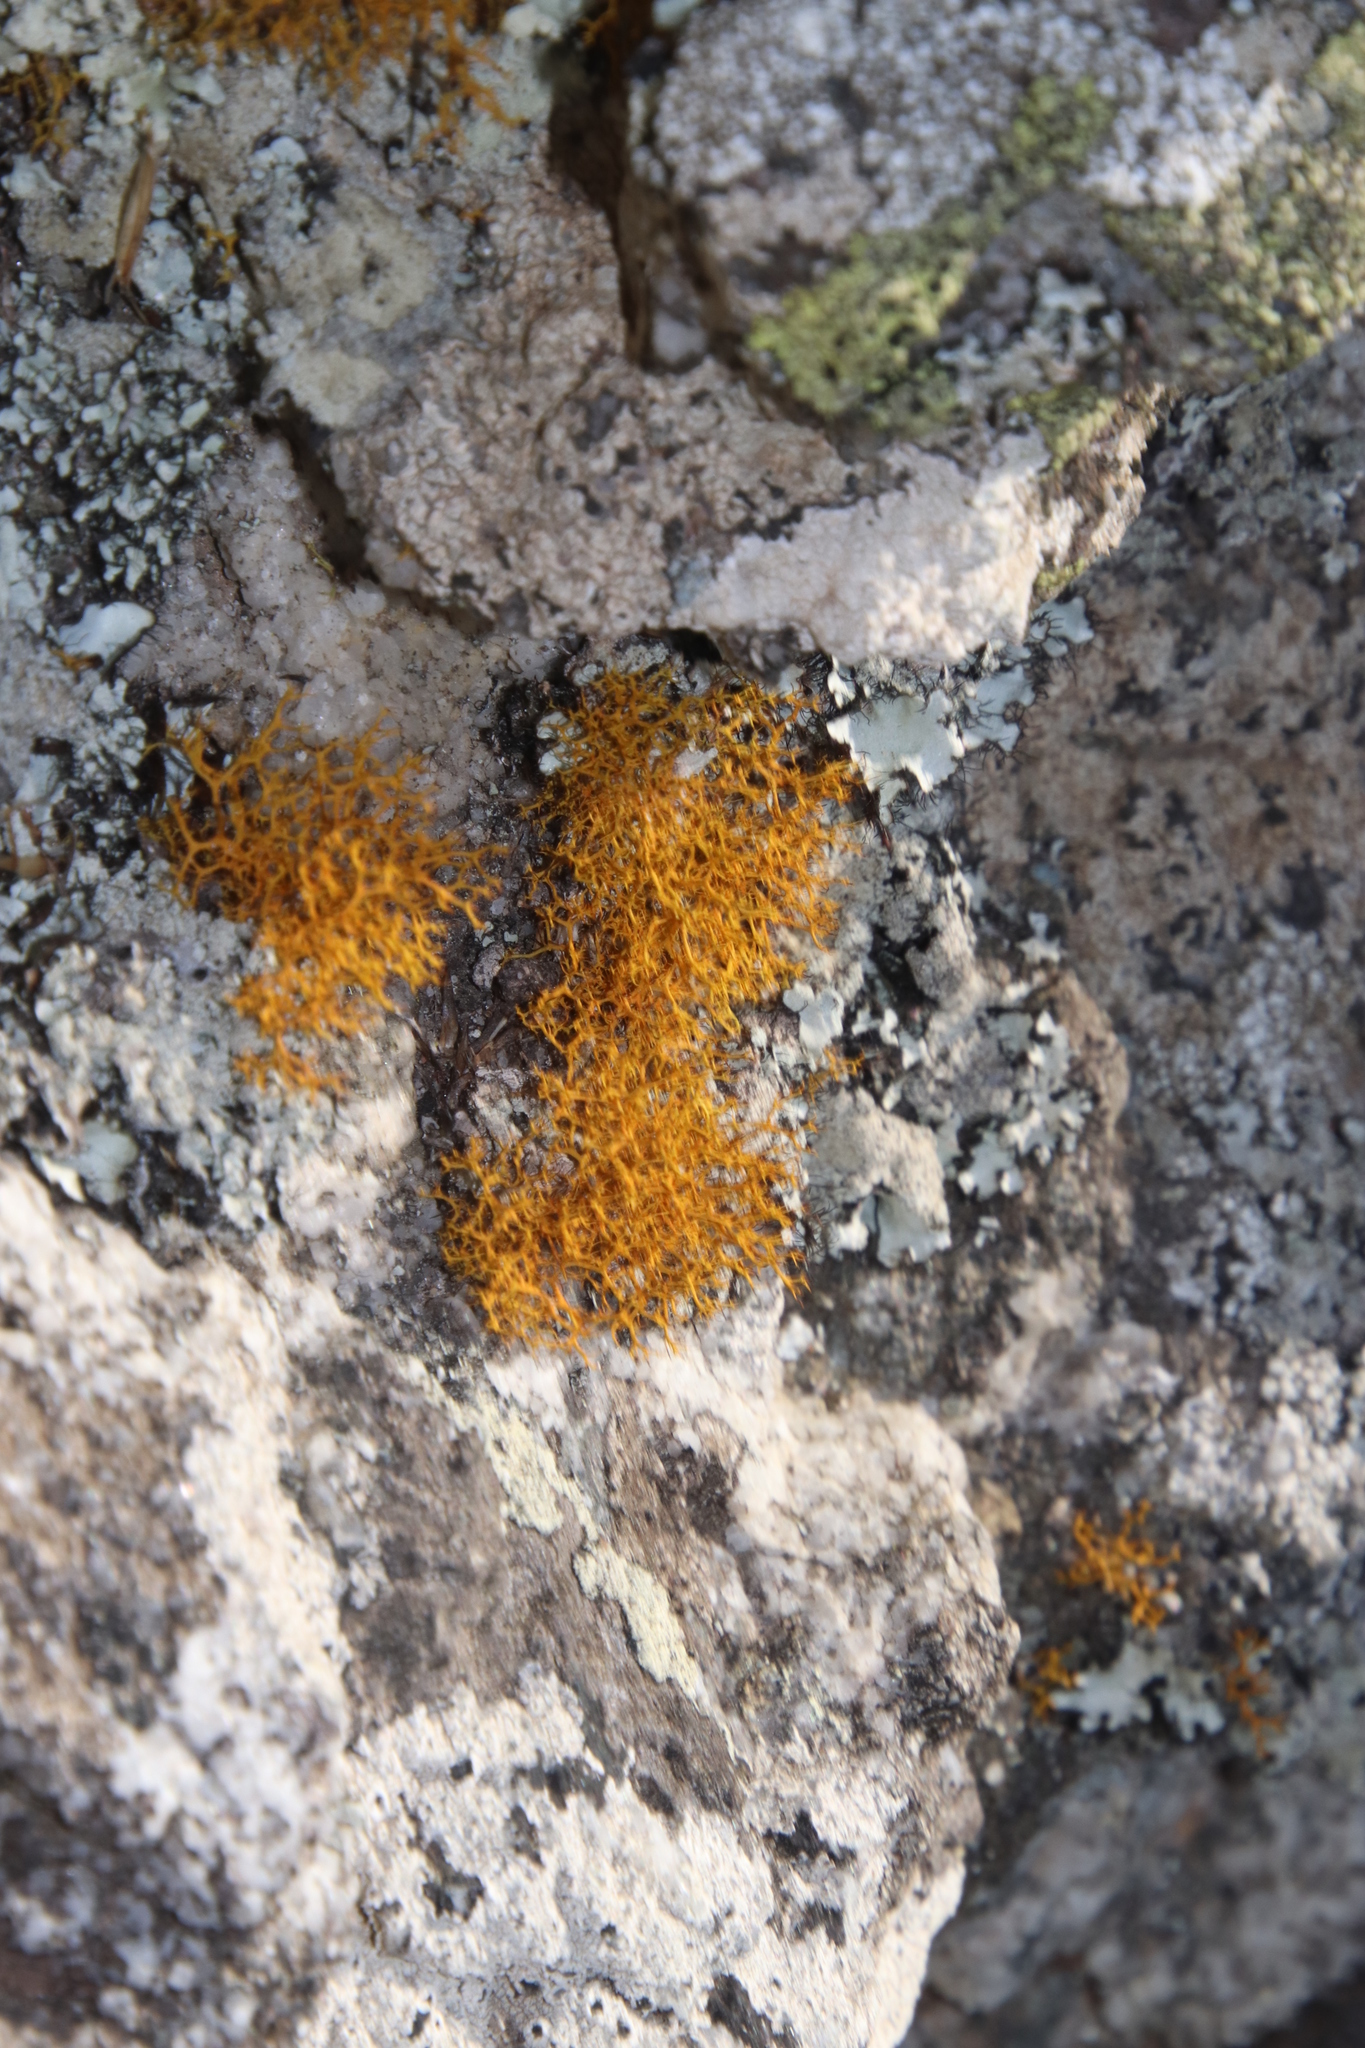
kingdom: Fungi
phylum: Ascomycota
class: Lecanoromycetes
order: Teloschistales
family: Teloschistaceae
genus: Teloschistes
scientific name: Teloschistes flavicans
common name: Golden hair-lichen
